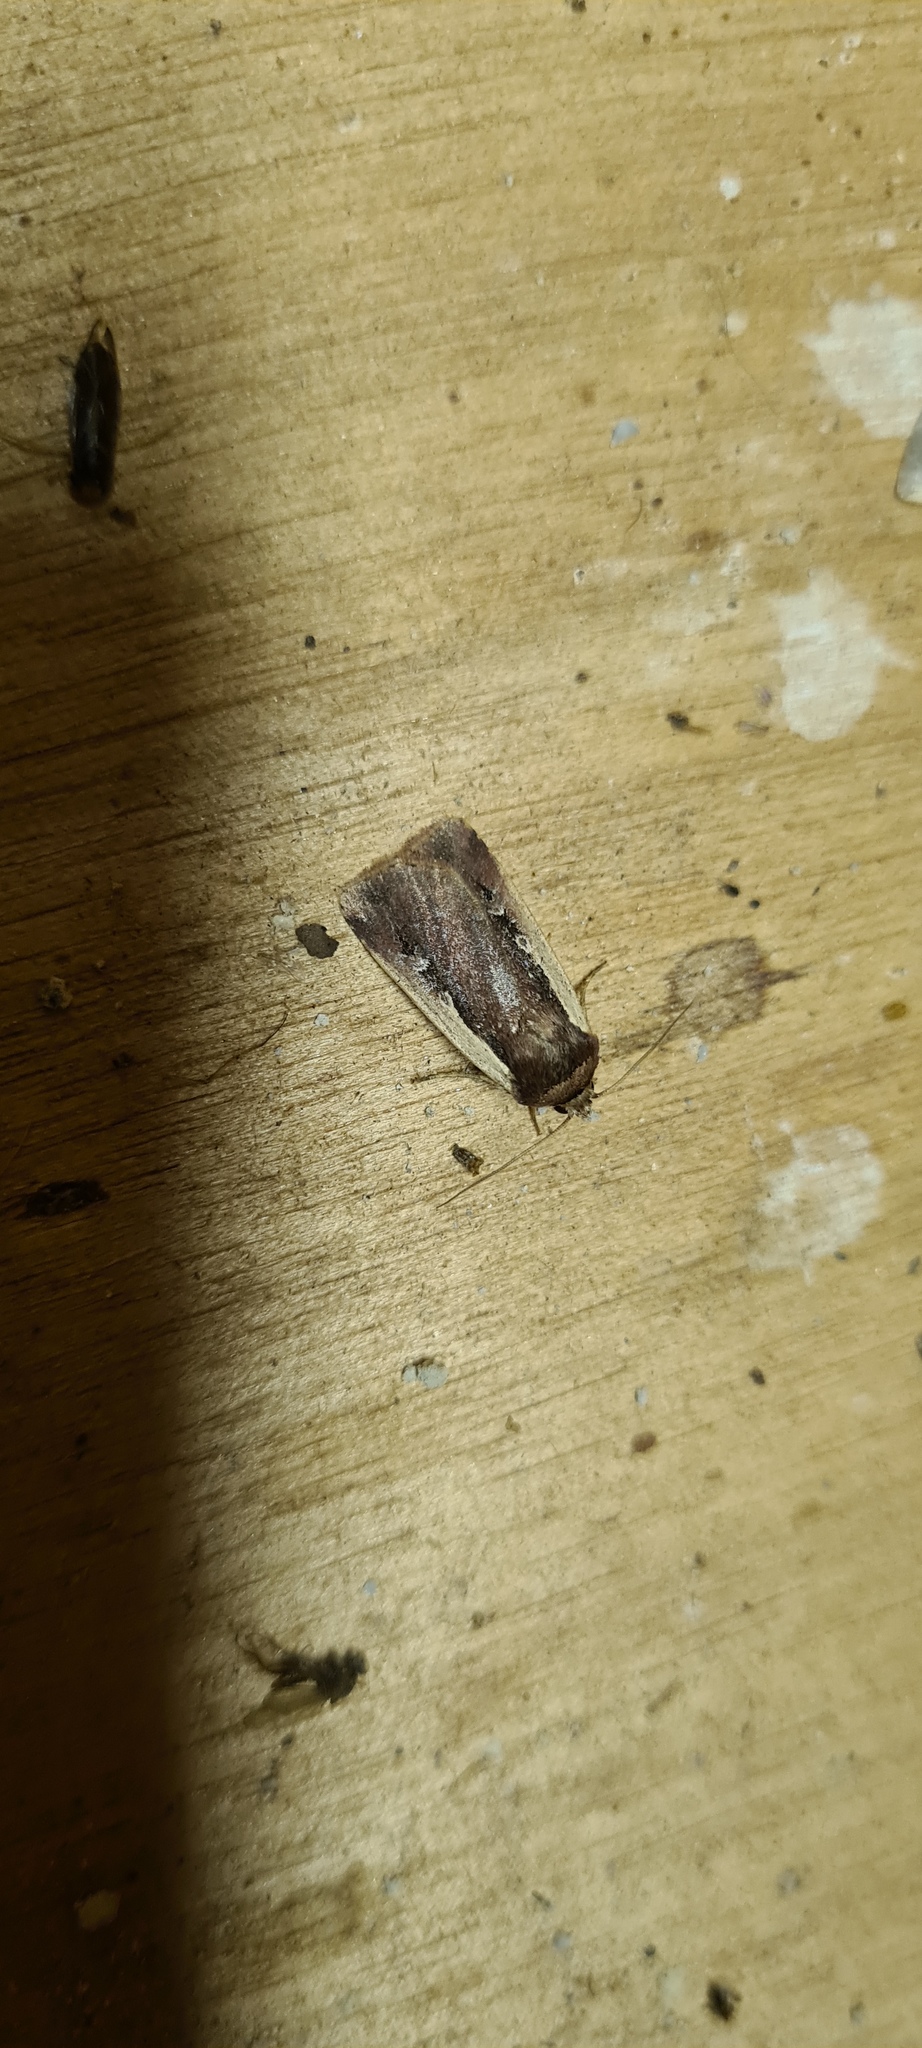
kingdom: Animalia
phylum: Arthropoda
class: Insecta
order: Lepidoptera
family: Noctuidae
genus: Ochropleura
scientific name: Ochropleura plecta
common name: Flame shoulder
